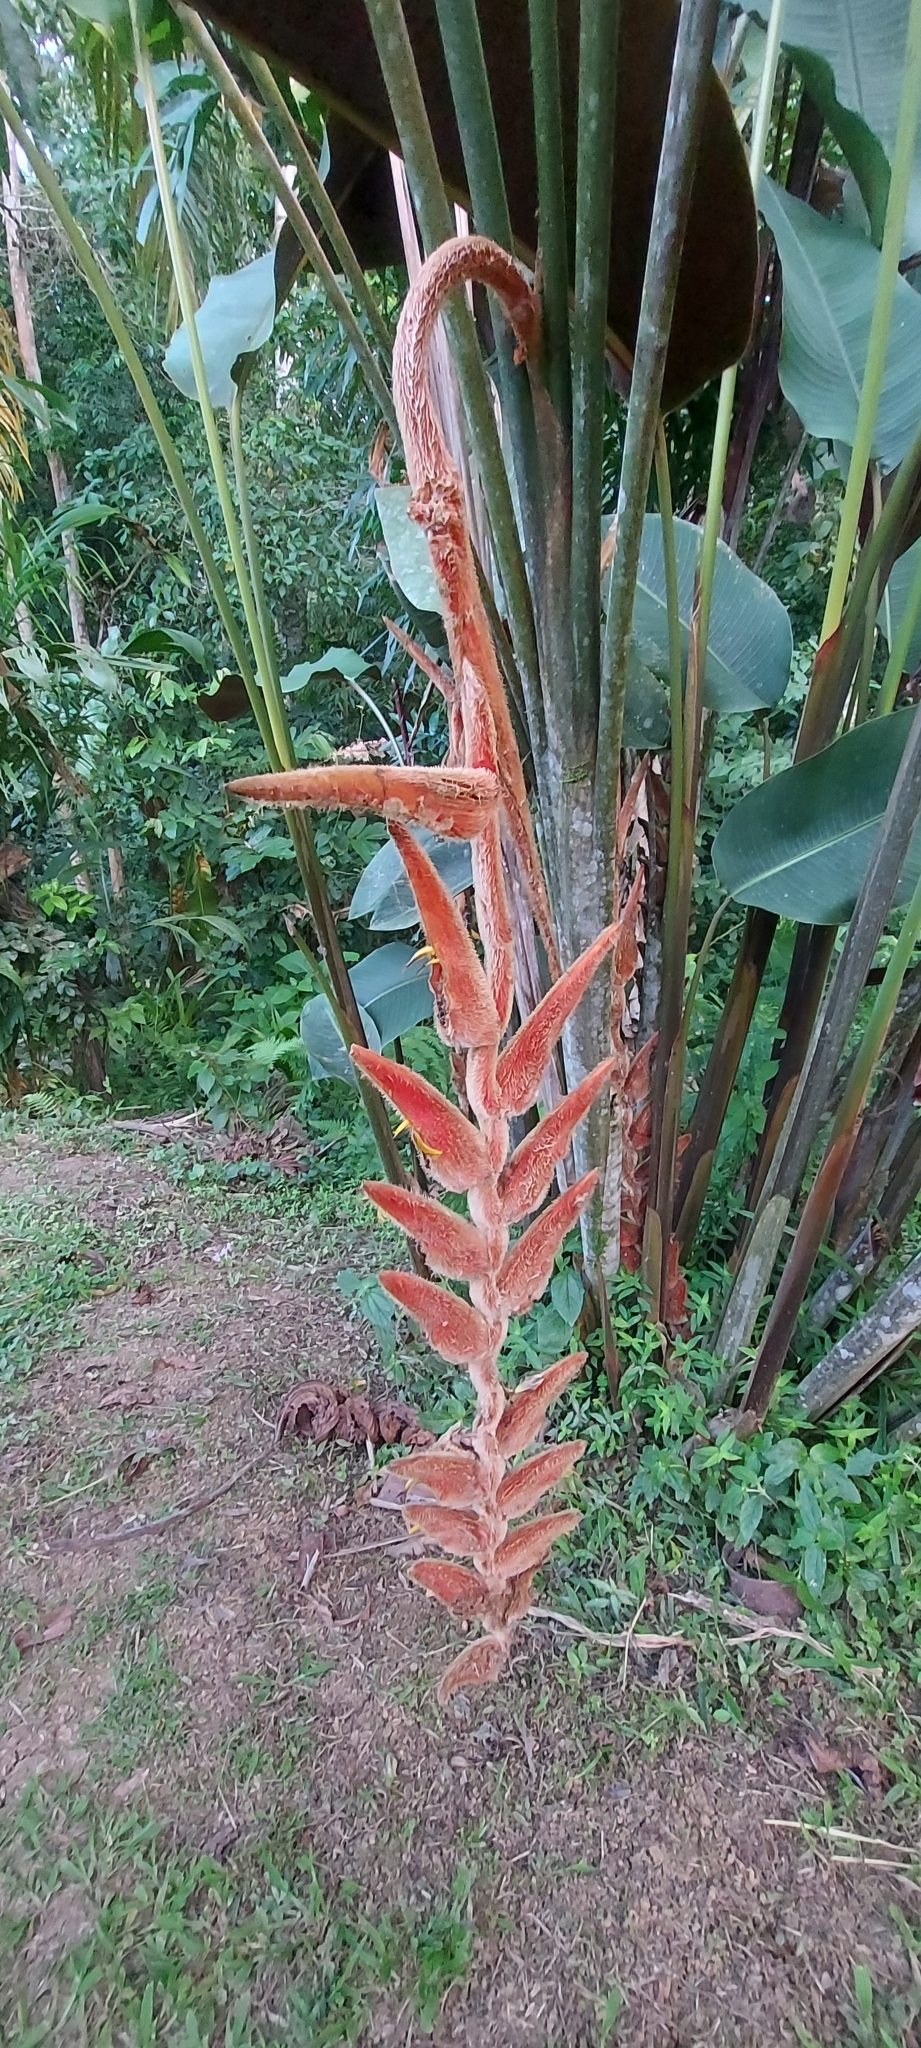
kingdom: Plantae
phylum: Tracheophyta
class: Liliopsida
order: Zingiberales
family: Heliconiaceae
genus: Heliconia
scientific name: Heliconia vellerigera
